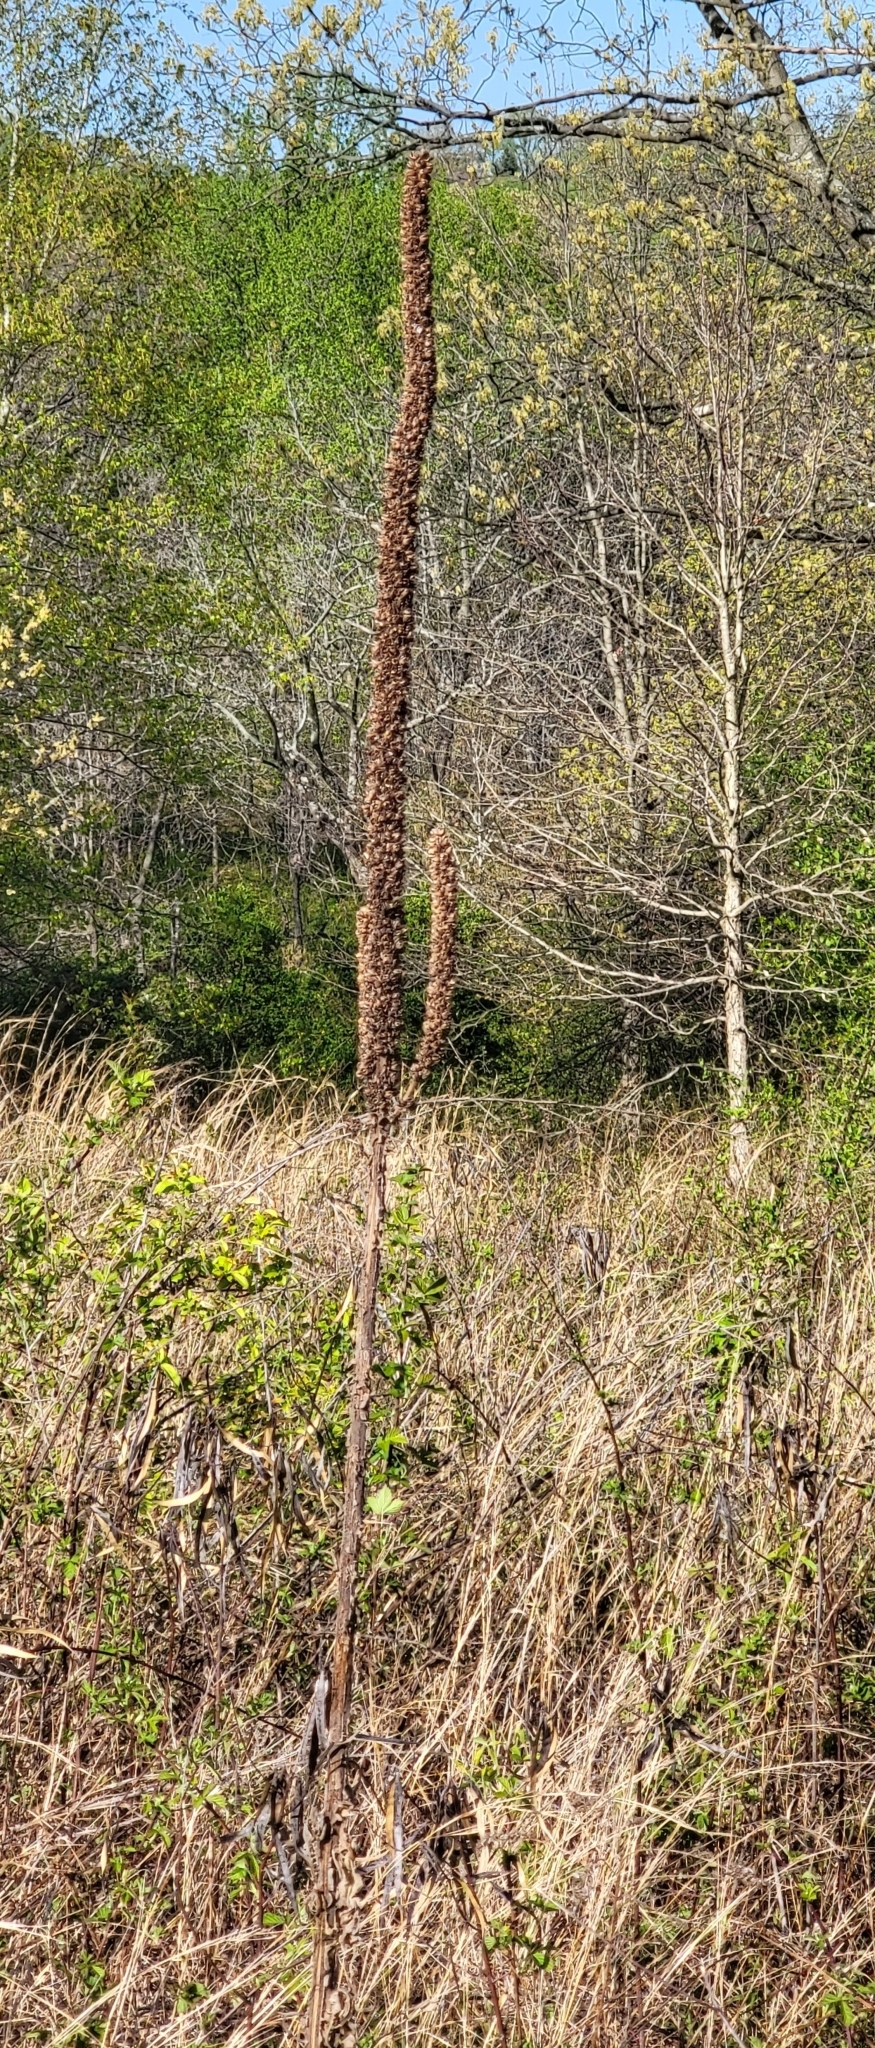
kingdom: Plantae
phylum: Tracheophyta
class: Magnoliopsida
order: Lamiales
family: Scrophulariaceae
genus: Verbascum
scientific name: Verbascum thapsus
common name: Common mullein
